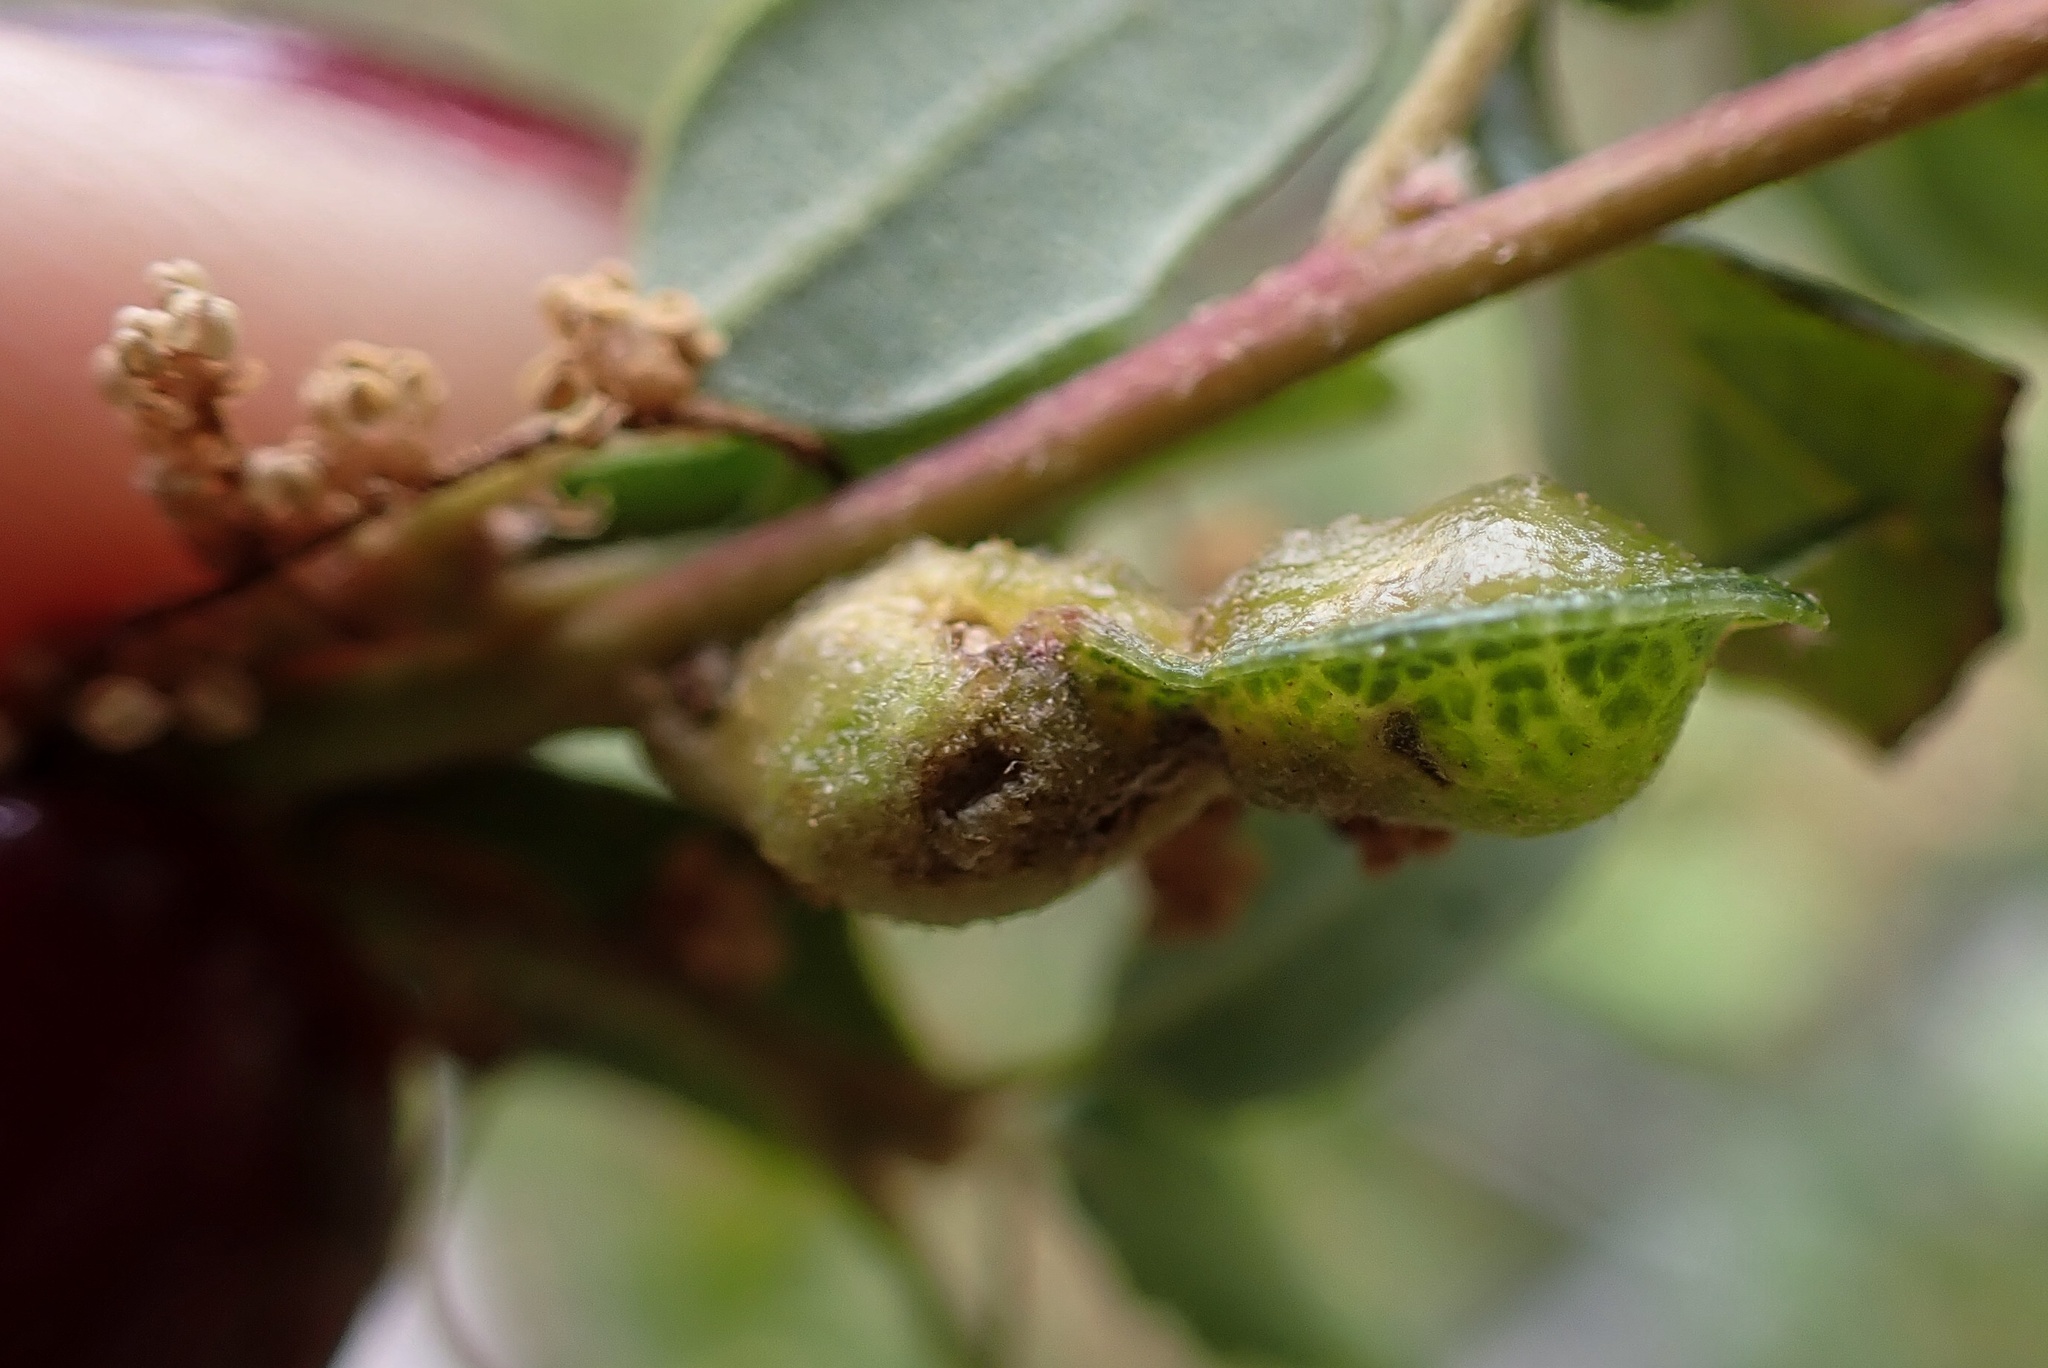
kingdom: Animalia
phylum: Arthropoda
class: Insecta
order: Hymenoptera
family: Cynipidae
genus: Neuroterus
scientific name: Neuroterus
